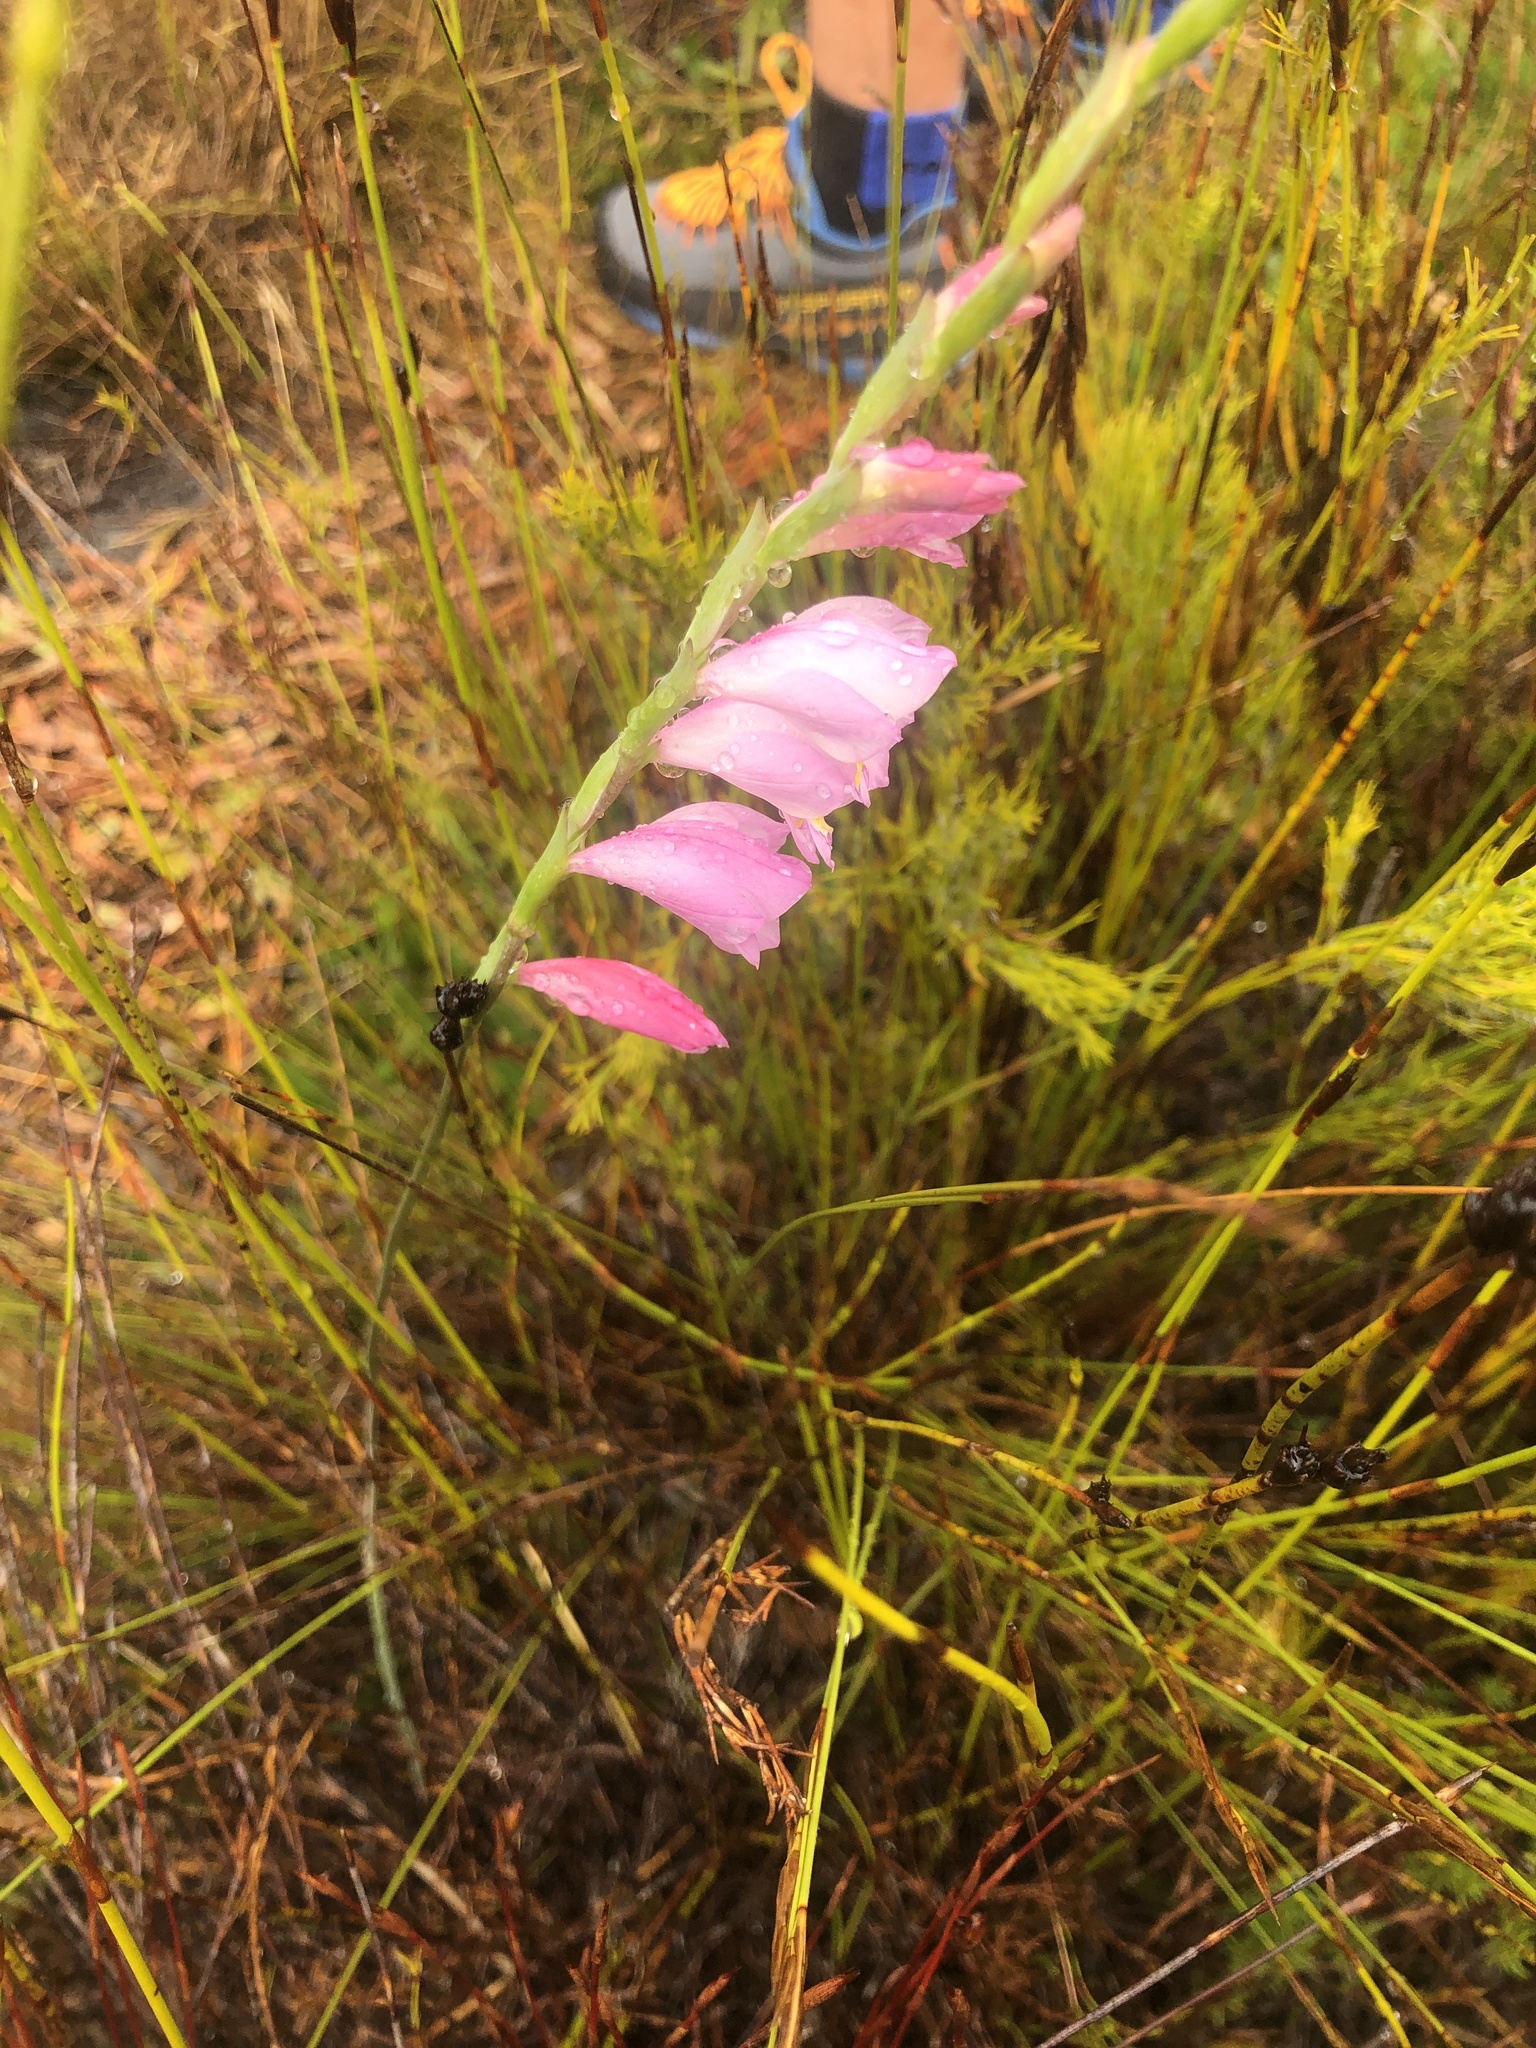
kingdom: Plantae
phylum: Tracheophyta
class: Liliopsida
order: Asparagales
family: Iridaceae
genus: Gladiolus
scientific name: Gladiolus brevifolius
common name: March pypie
